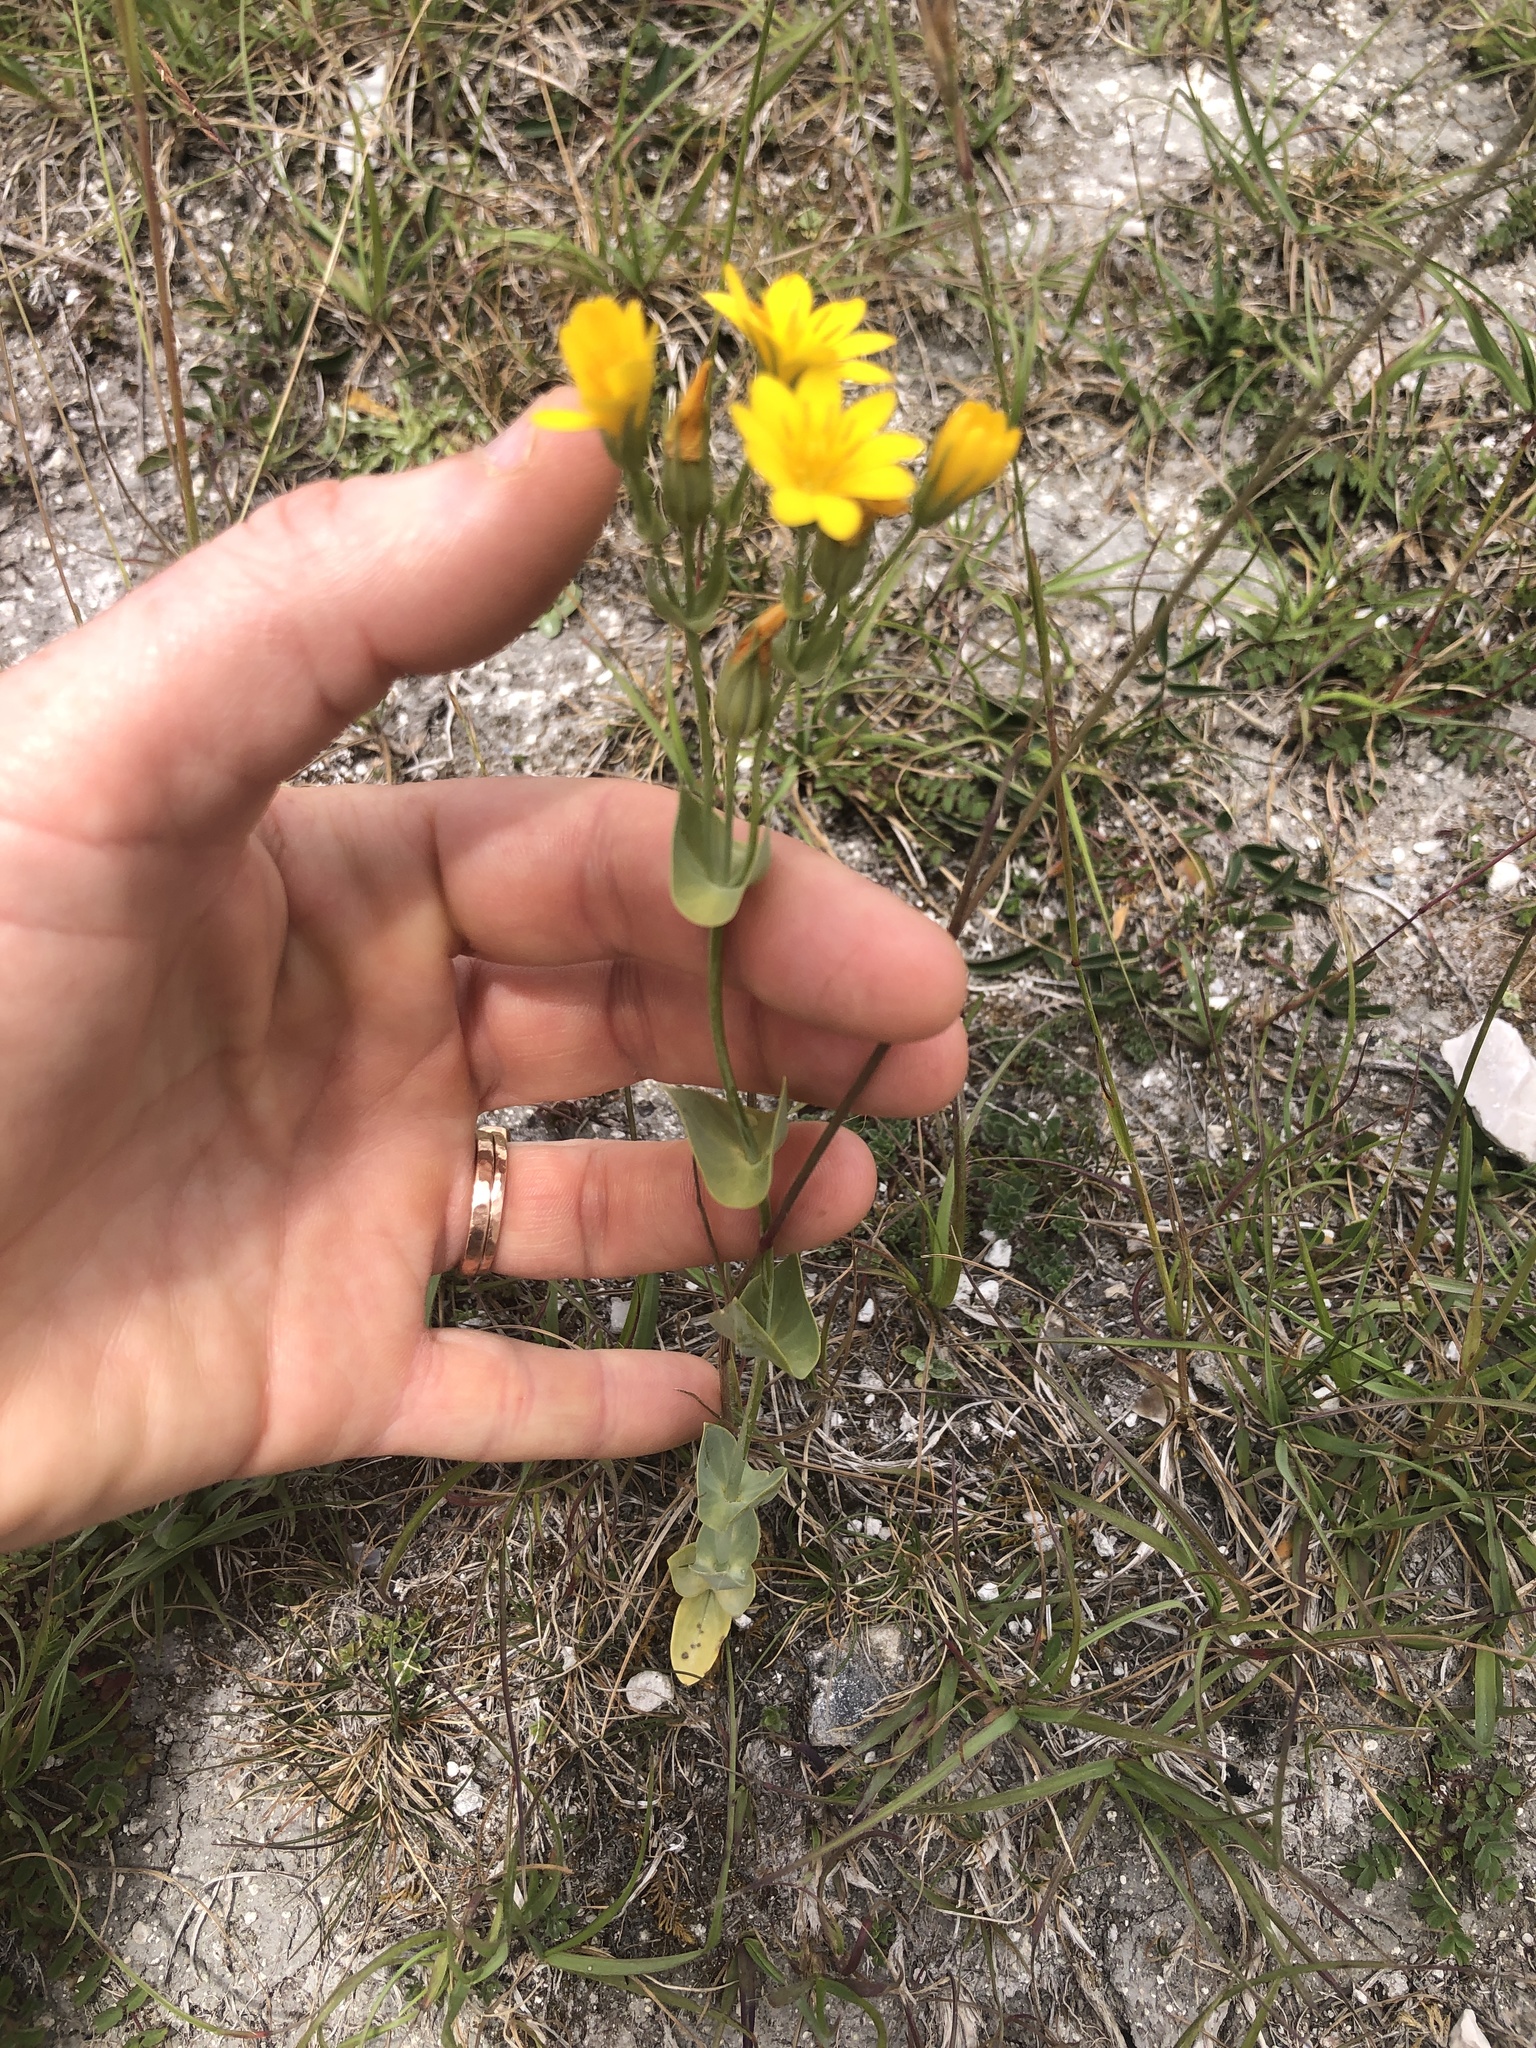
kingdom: Plantae
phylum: Tracheophyta
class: Magnoliopsida
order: Gentianales
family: Gentianaceae
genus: Blackstonia
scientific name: Blackstonia perfoliata
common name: Yellow-wort
